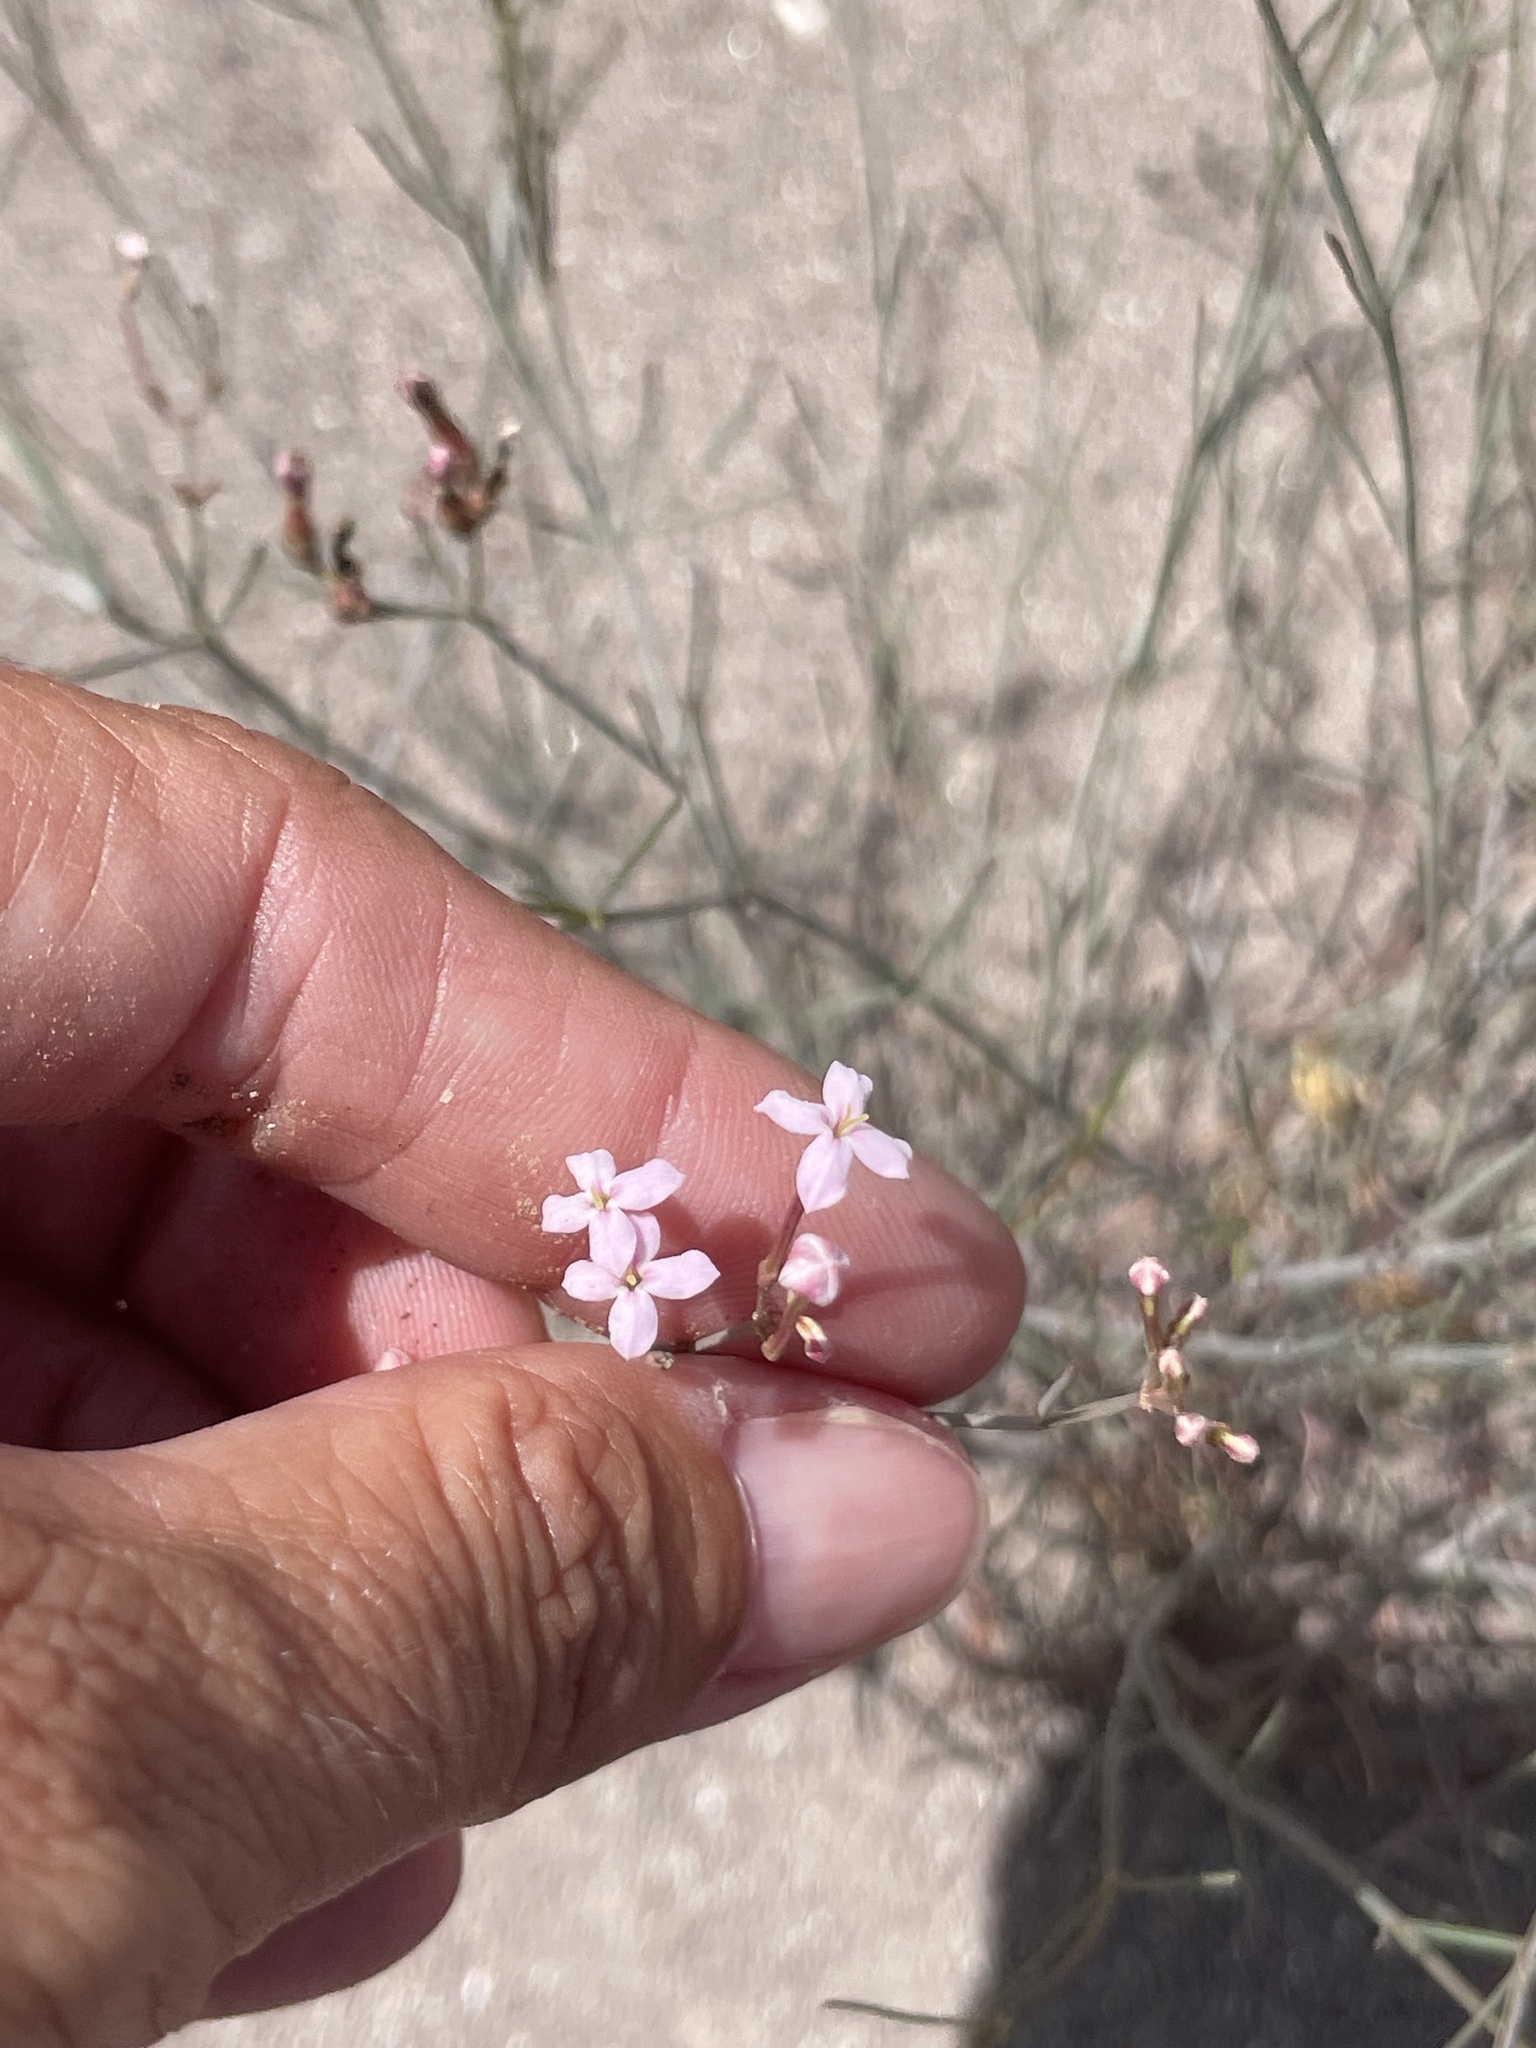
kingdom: Plantae
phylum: Tracheophyta
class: Magnoliopsida
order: Gentianales
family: Rubiaceae
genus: Stenotis
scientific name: Stenotis brevipes
